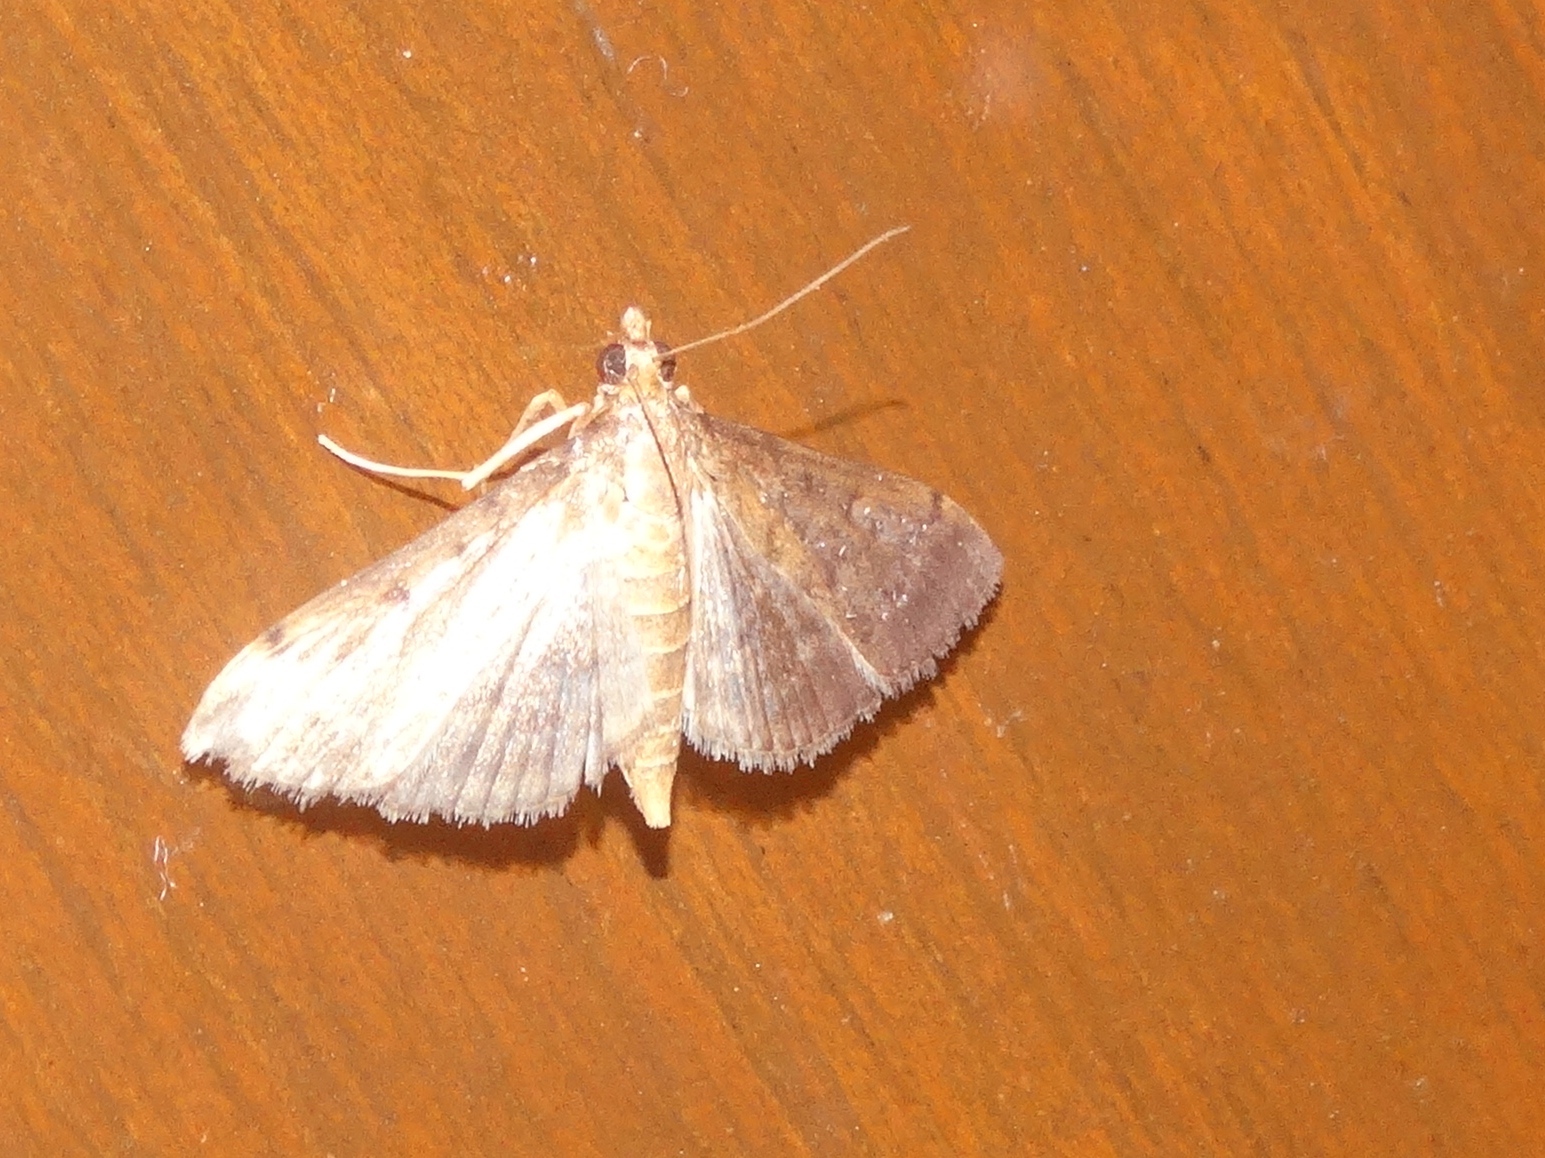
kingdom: Animalia
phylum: Arthropoda
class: Insecta
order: Lepidoptera
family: Crambidae
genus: Spilomelinae
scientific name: Spilomelinae
